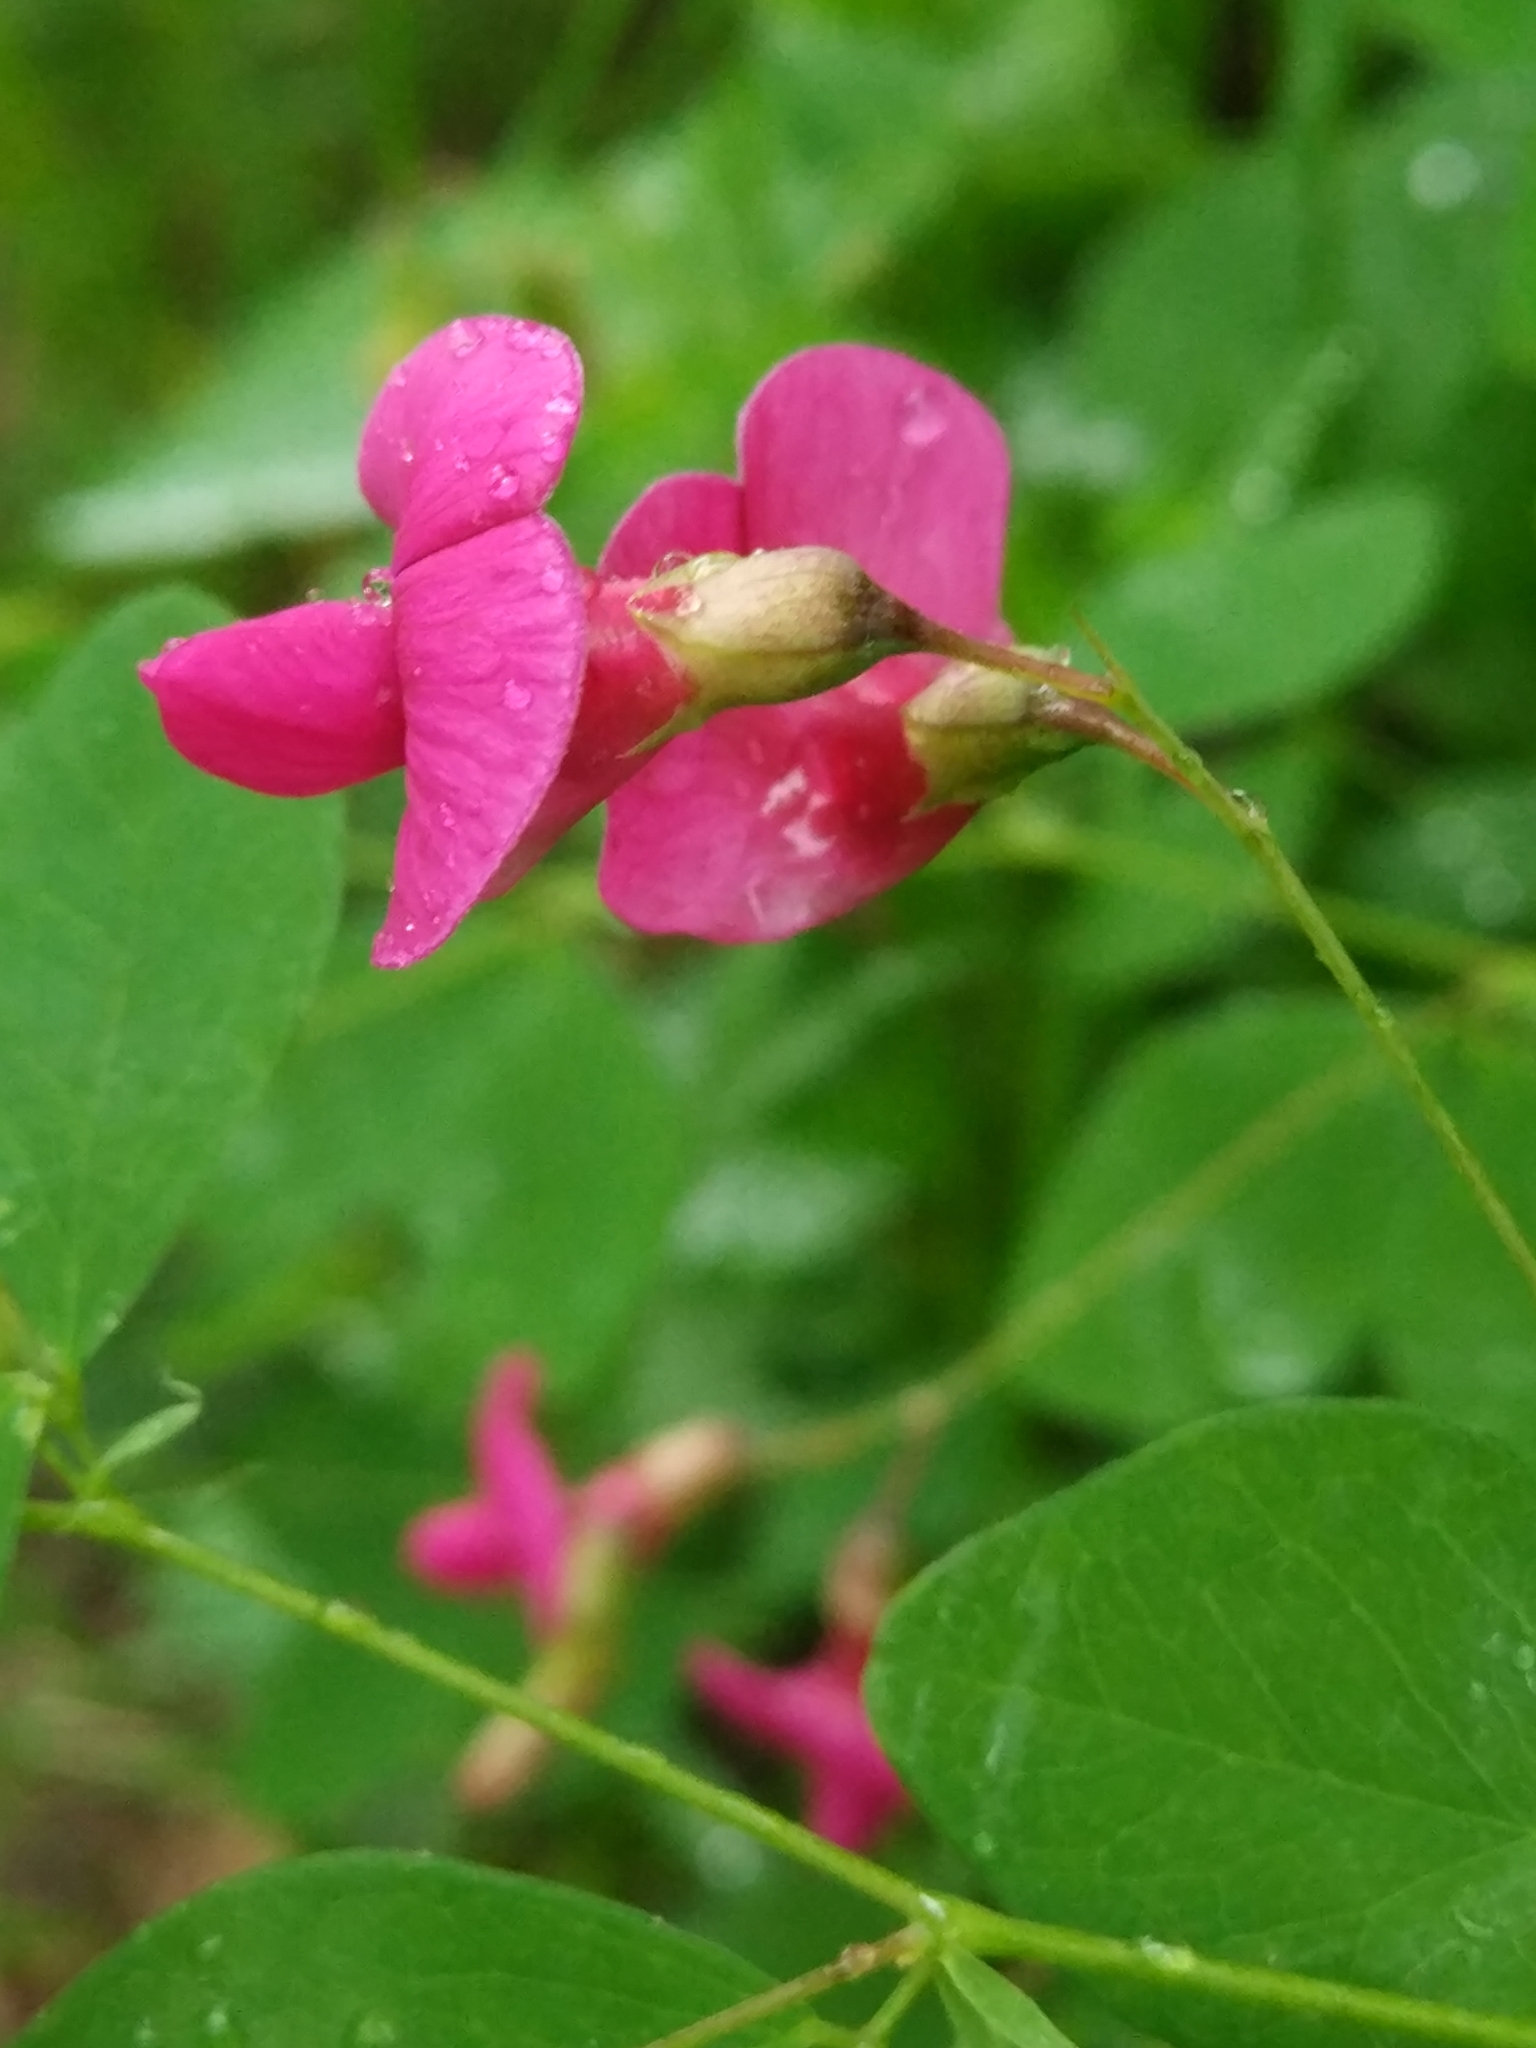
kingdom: Plantae
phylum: Tracheophyta
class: Magnoliopsida
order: Fabales
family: Fabaceae
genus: Lathyrus
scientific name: Lathyrus roseus
